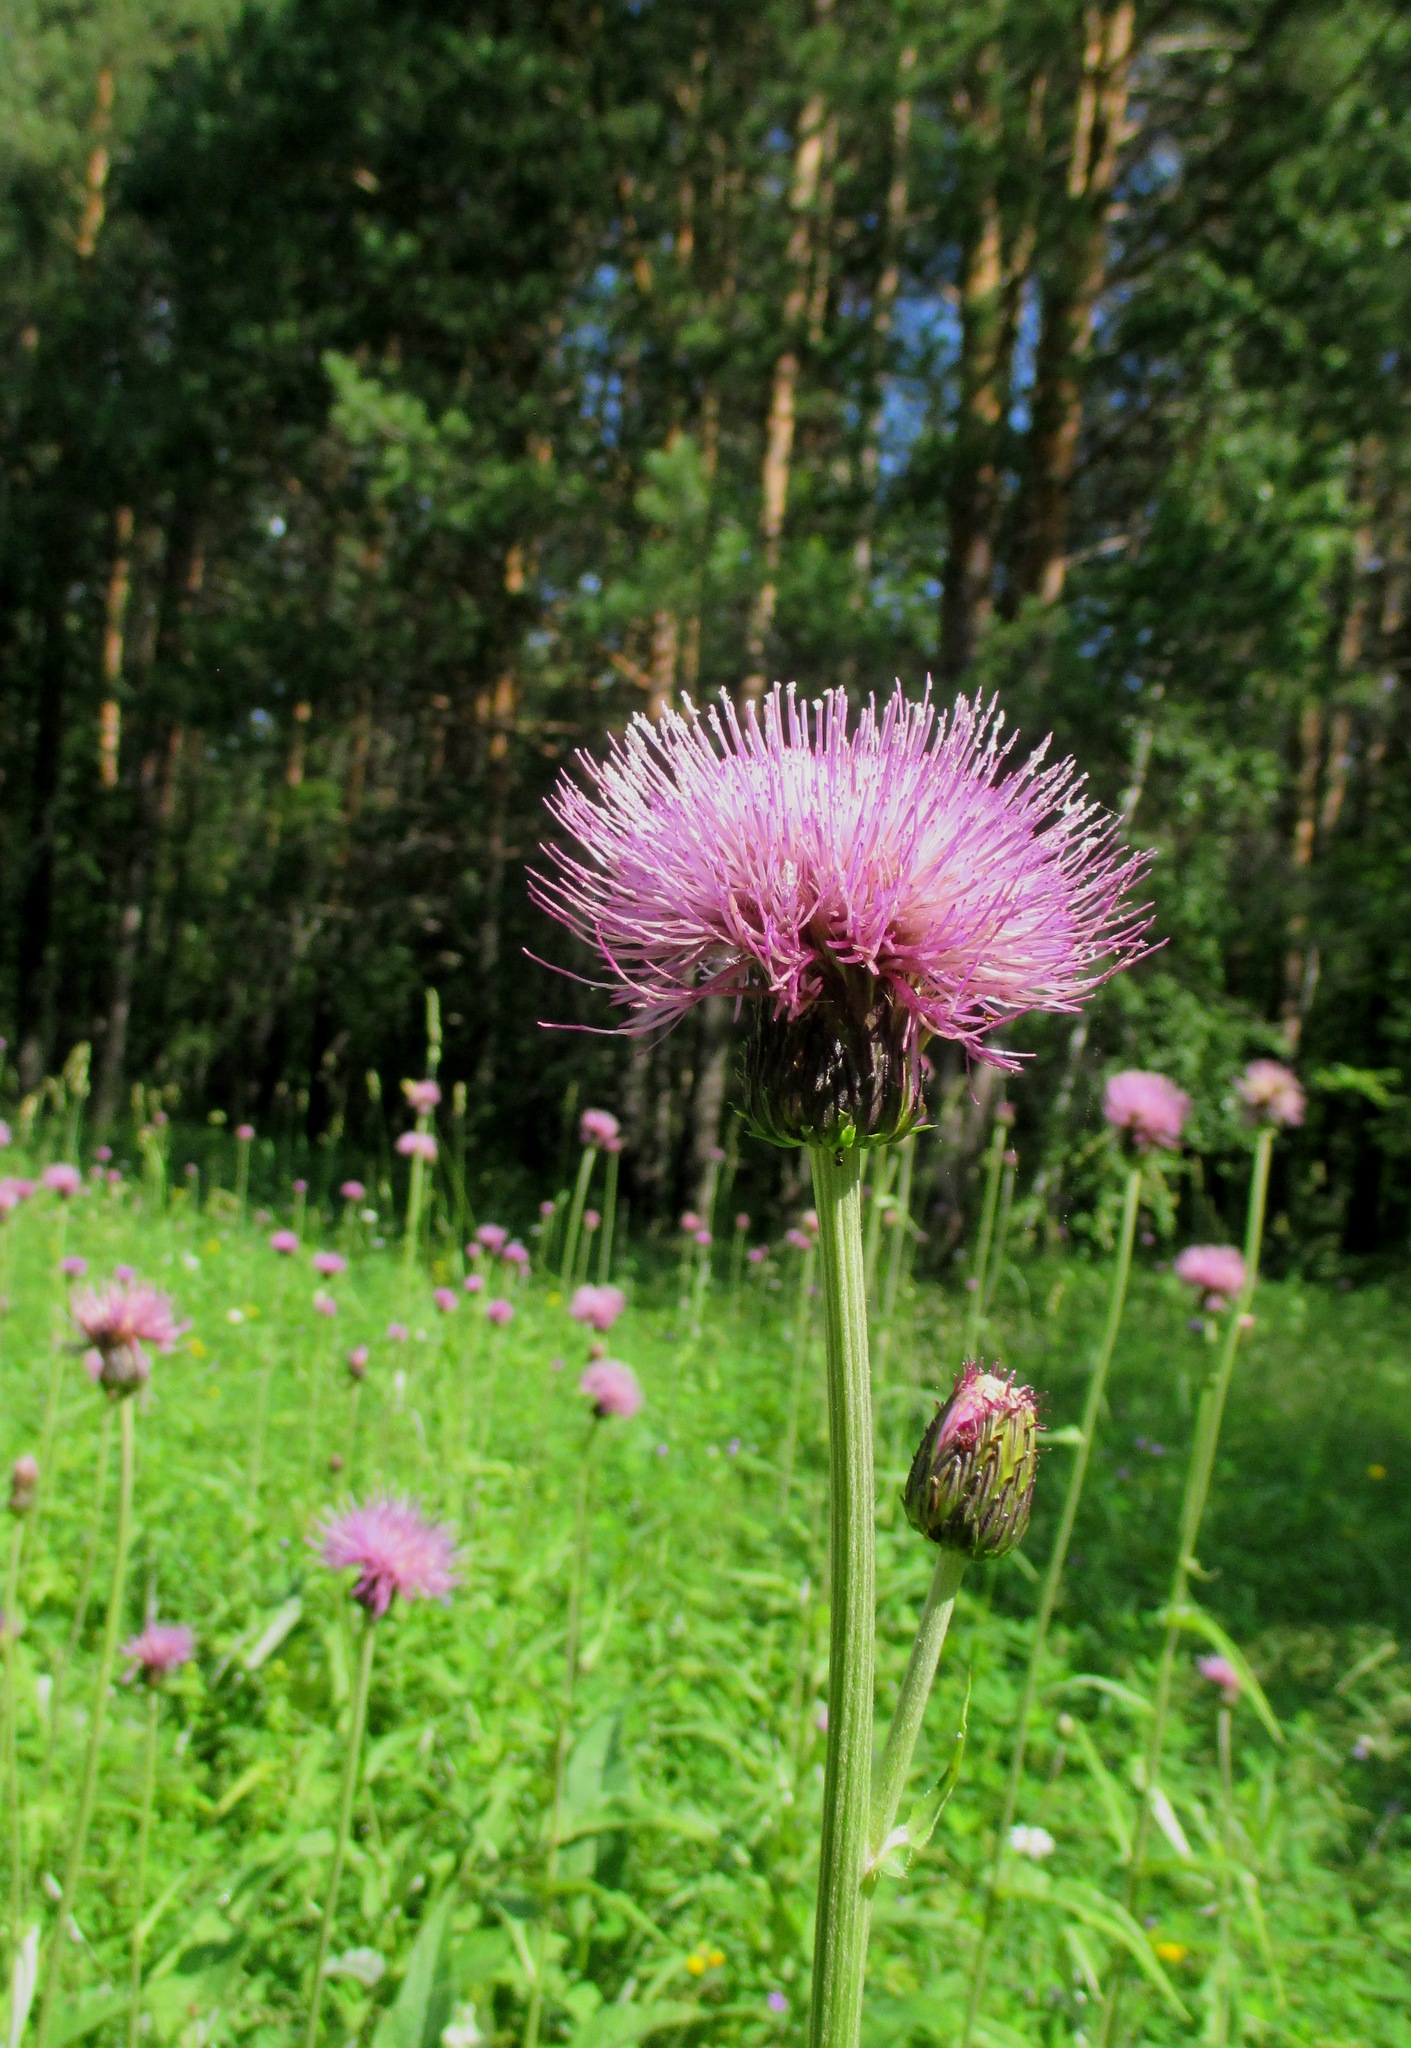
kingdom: Plantae
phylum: Tracheophyta
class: Magnoliopsida
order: Asterales
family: Asteraceae
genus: Cirsium
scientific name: Cirsium heterophyllum
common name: Melancholy thistle
